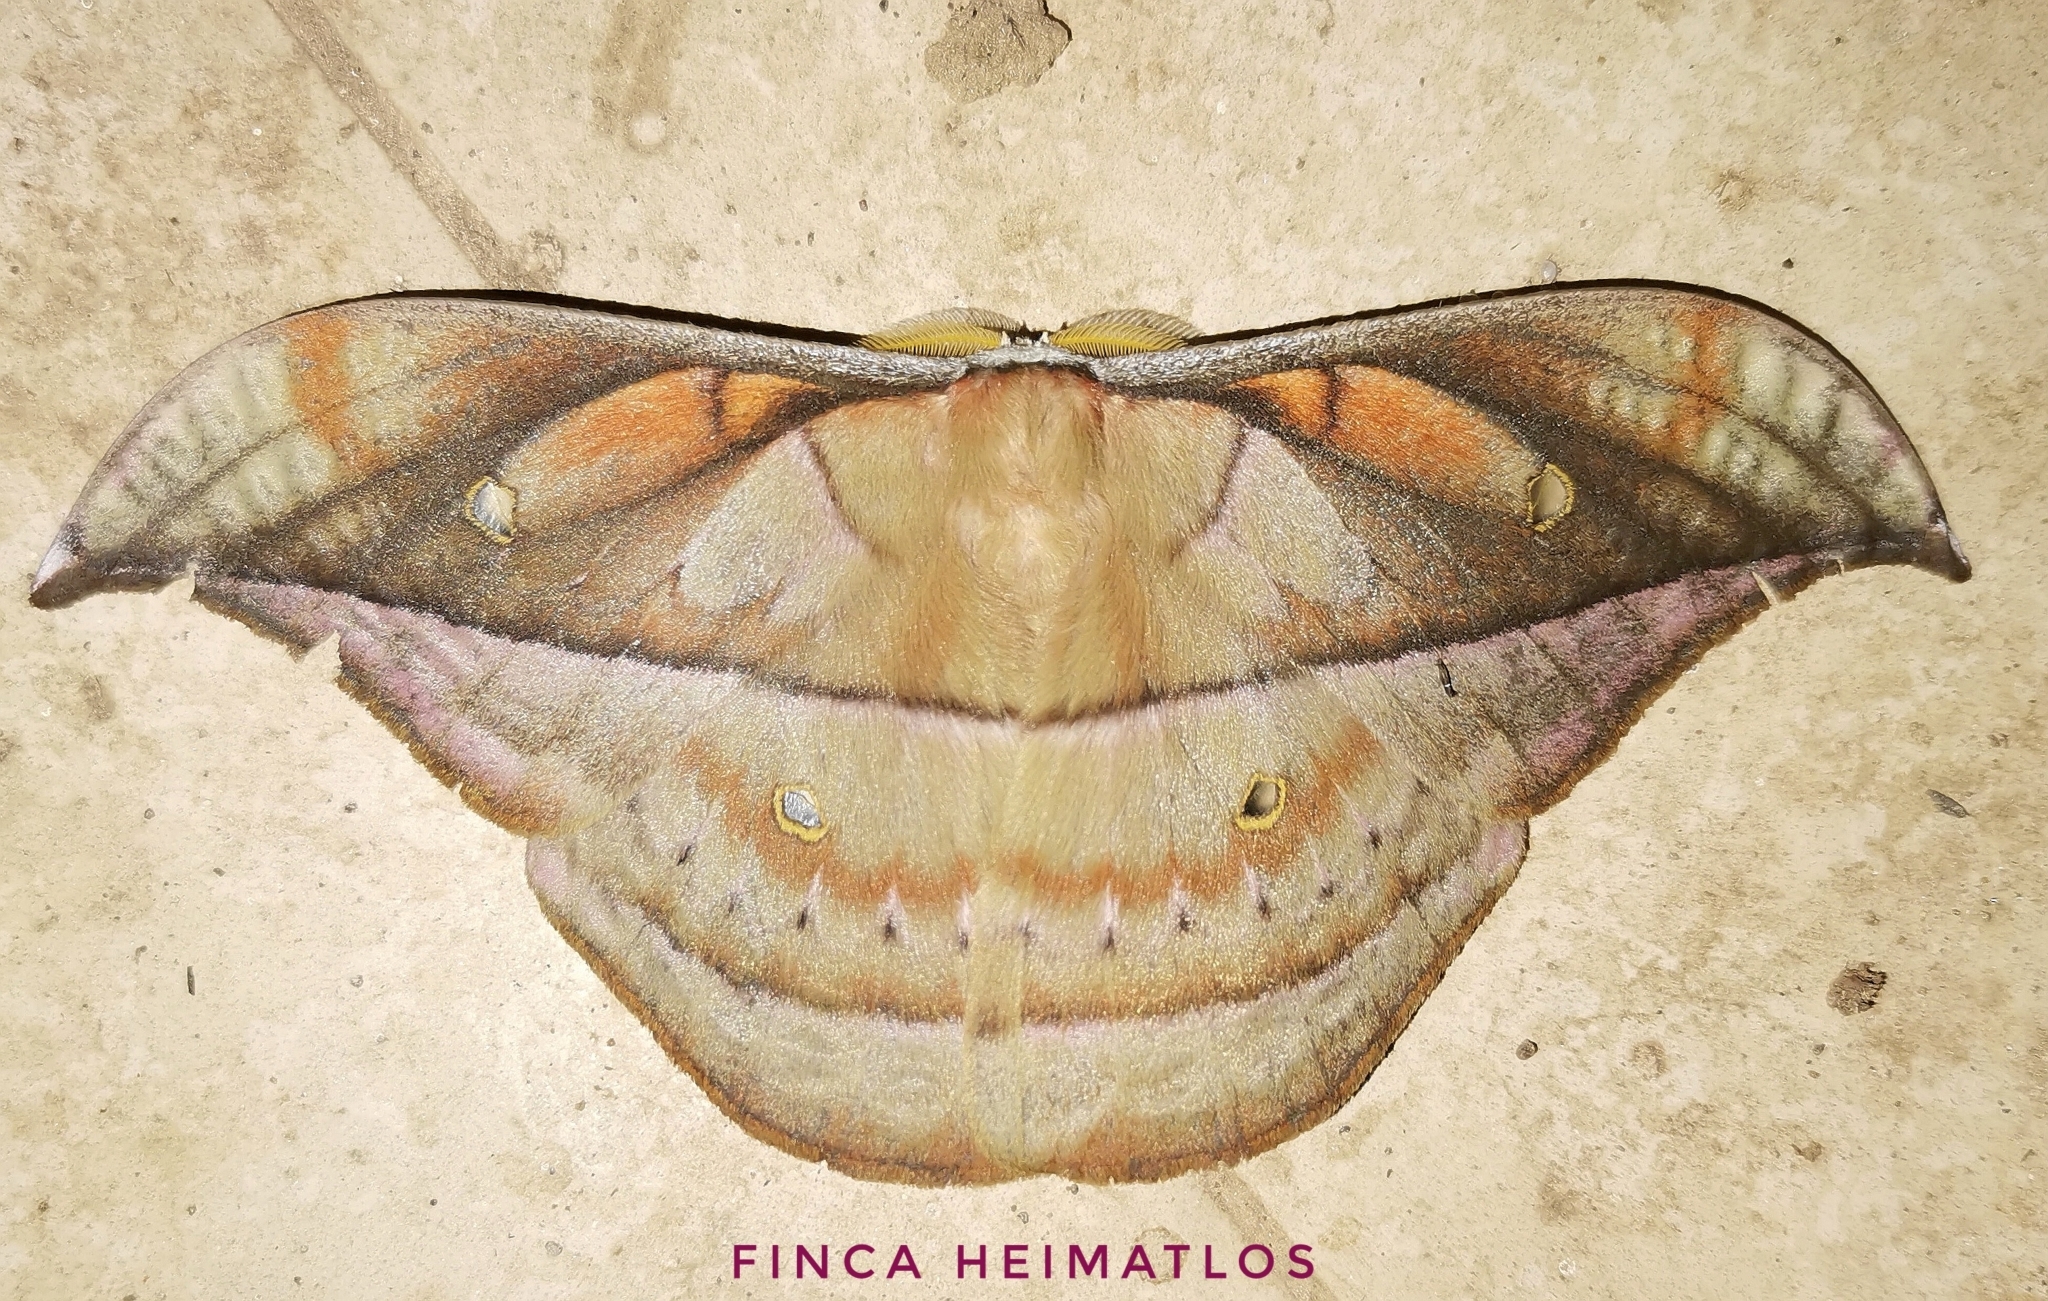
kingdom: Animalia
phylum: Arthropoda
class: Insecta
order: Lepidoptera
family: Saturniidae
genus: Copaxa
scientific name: Copaxa marona
